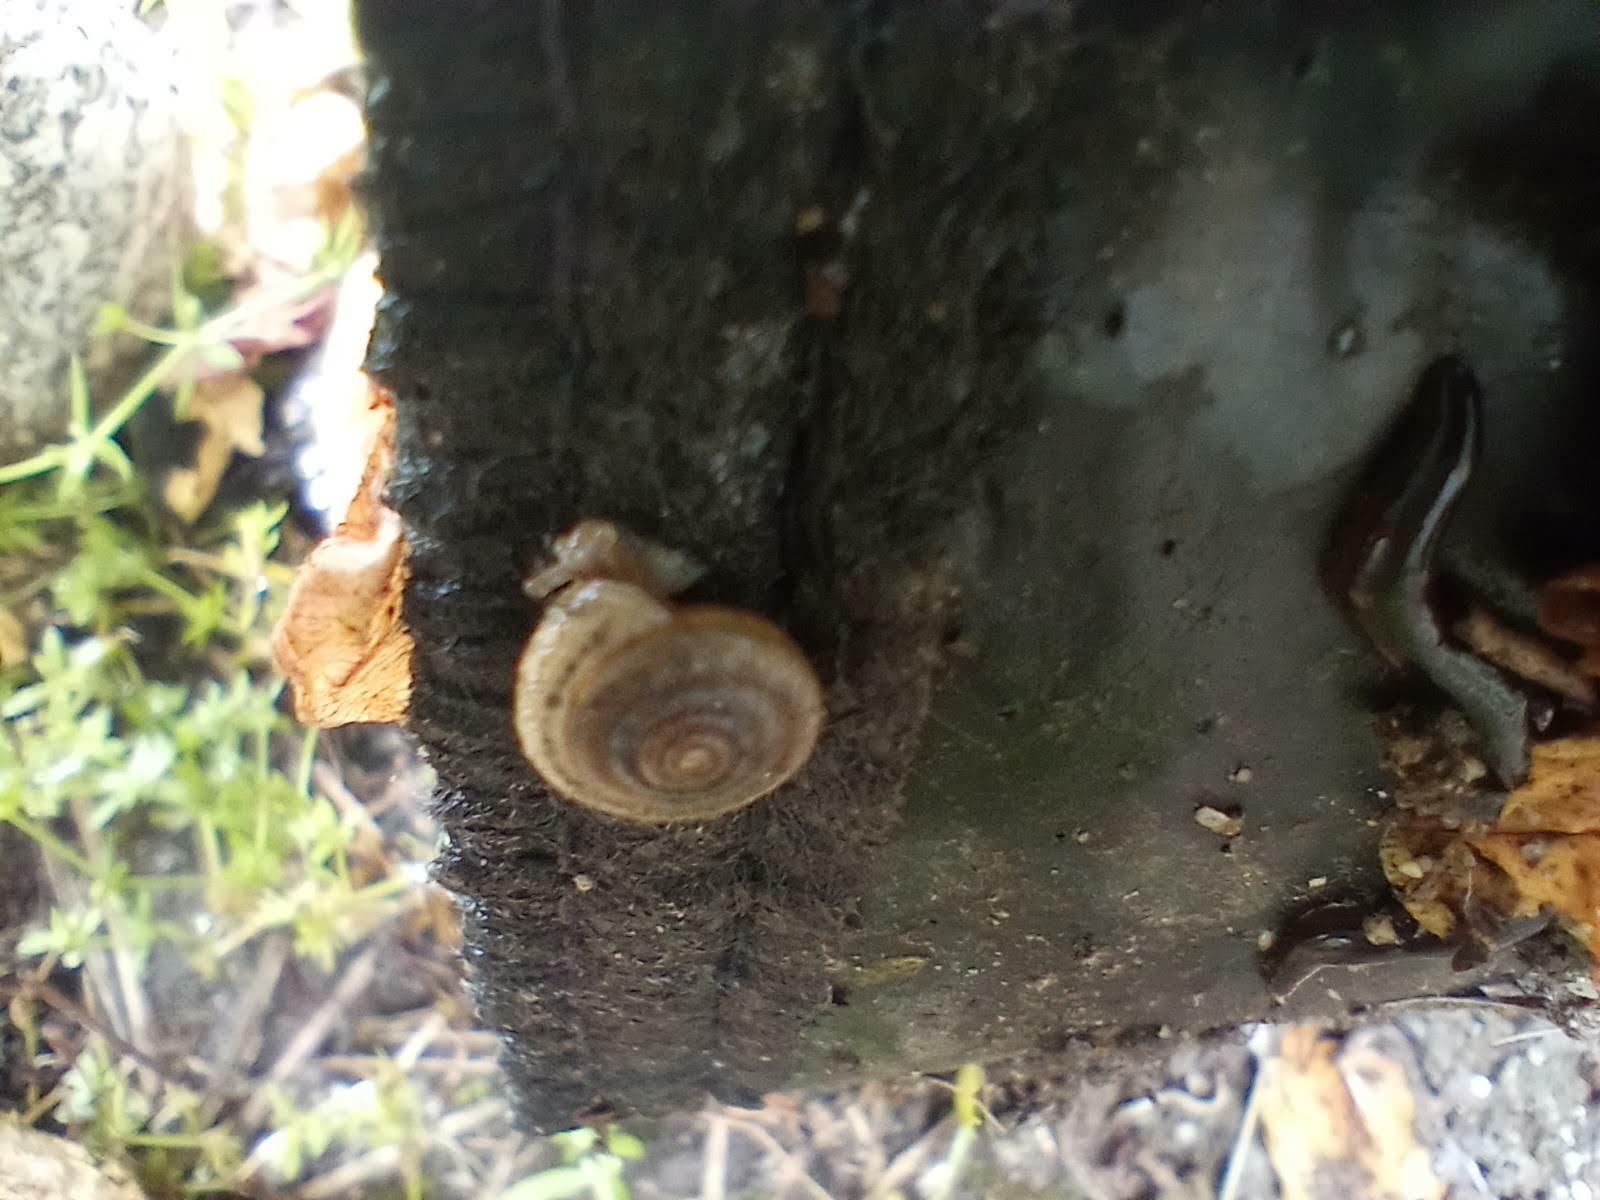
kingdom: Animalia
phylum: Mollusca
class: Gastropoda
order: Stylommatophora
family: Polygyridae
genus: Polygyra
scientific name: Polygyra cereolus
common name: Southern flatcone snail
